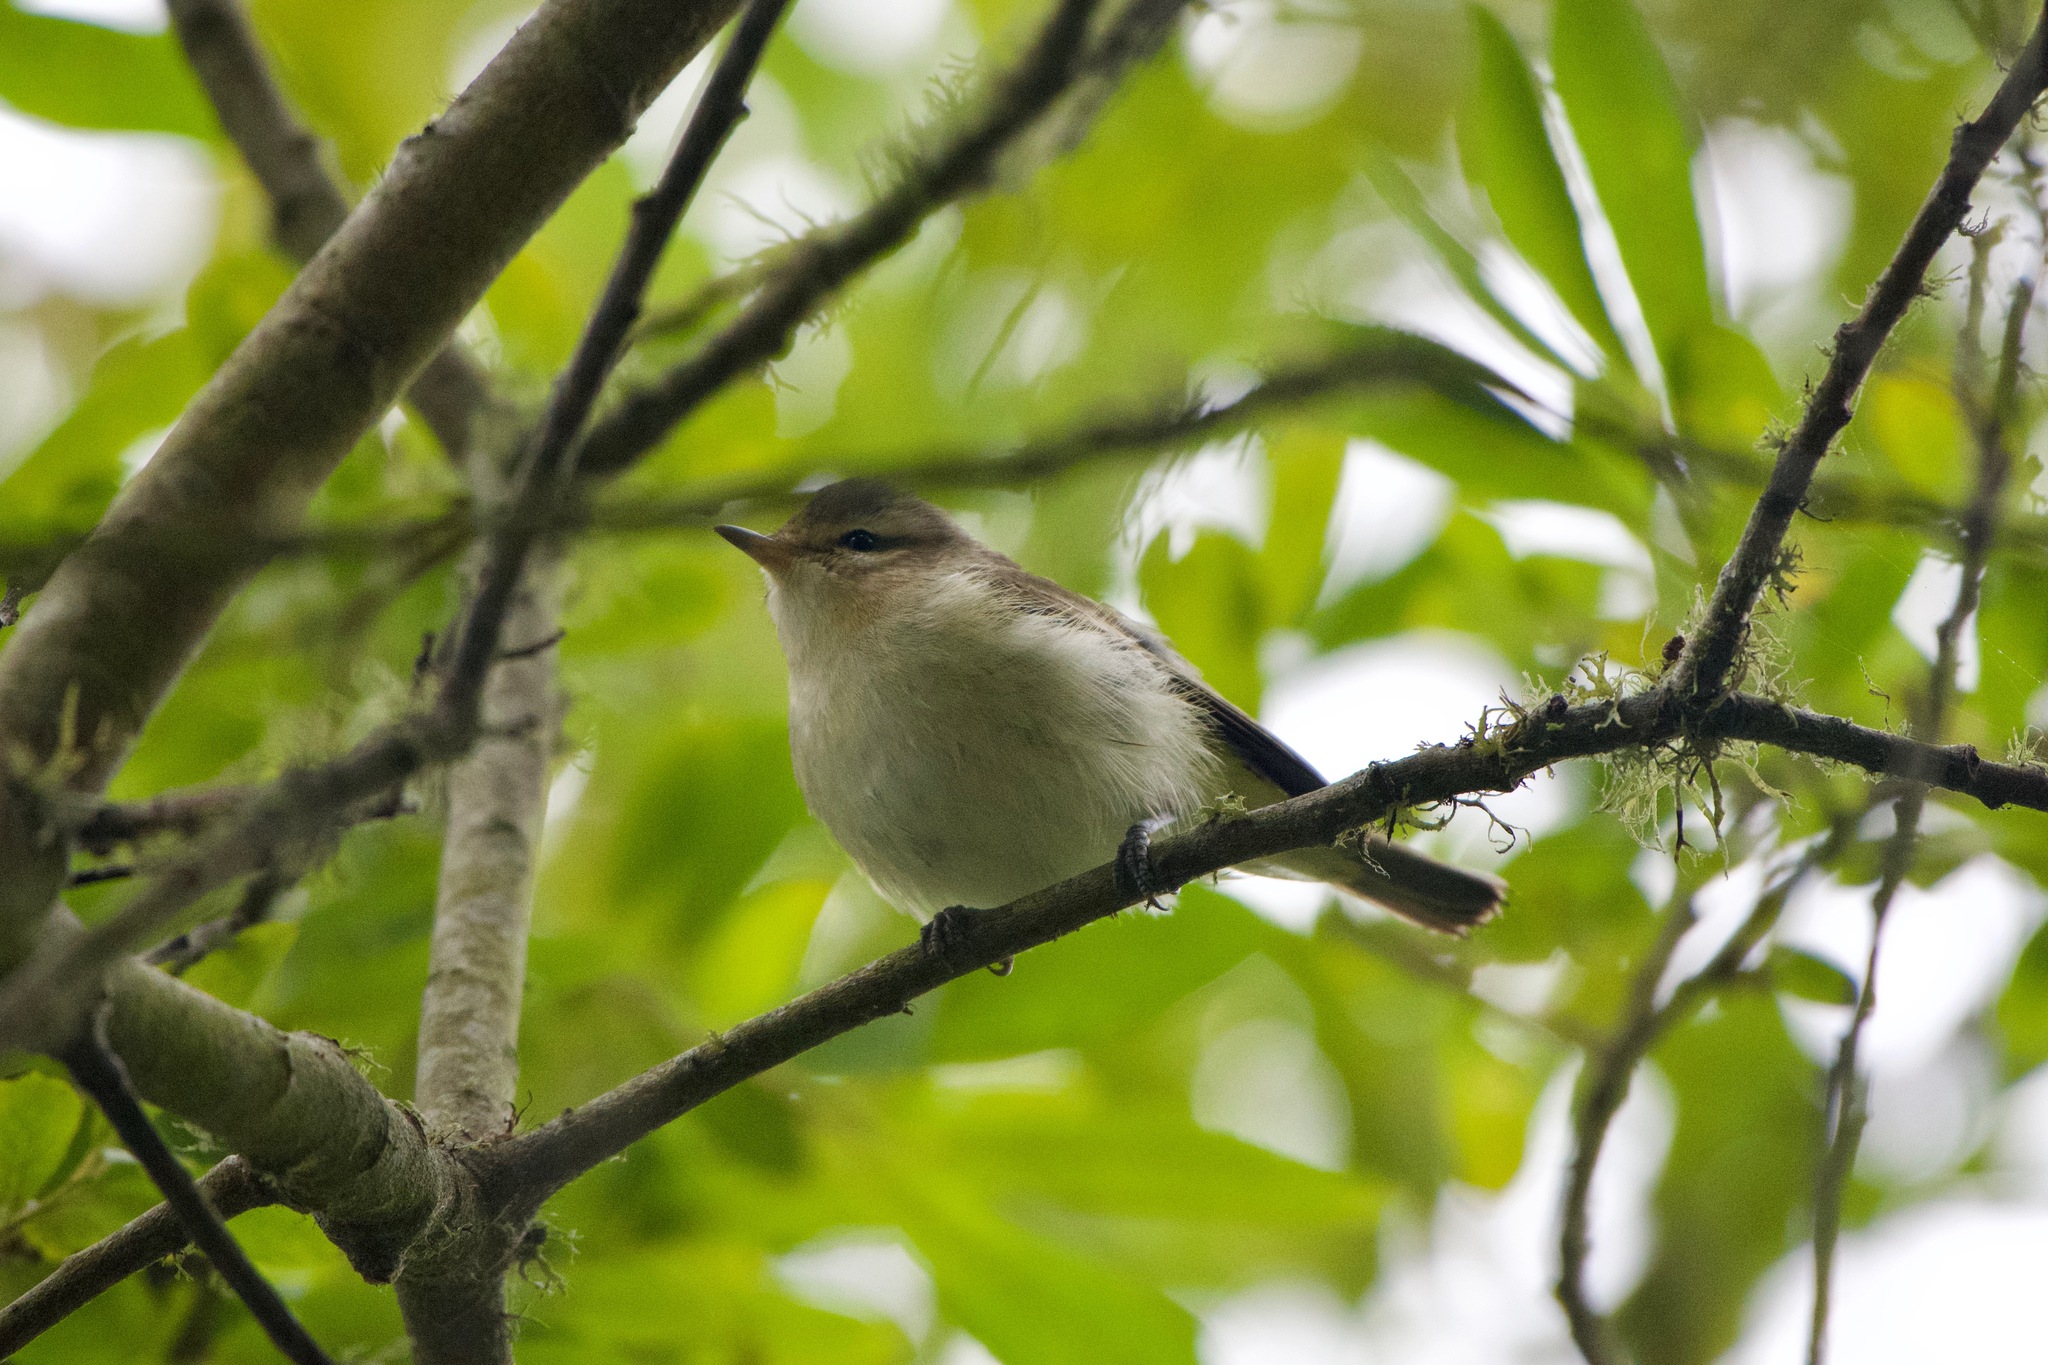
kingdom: Animalia
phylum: Chordata
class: Aves
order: Passeriformes
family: Vireonidae
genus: Vireo
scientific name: Vireo gilvus
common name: Warbling vireo
